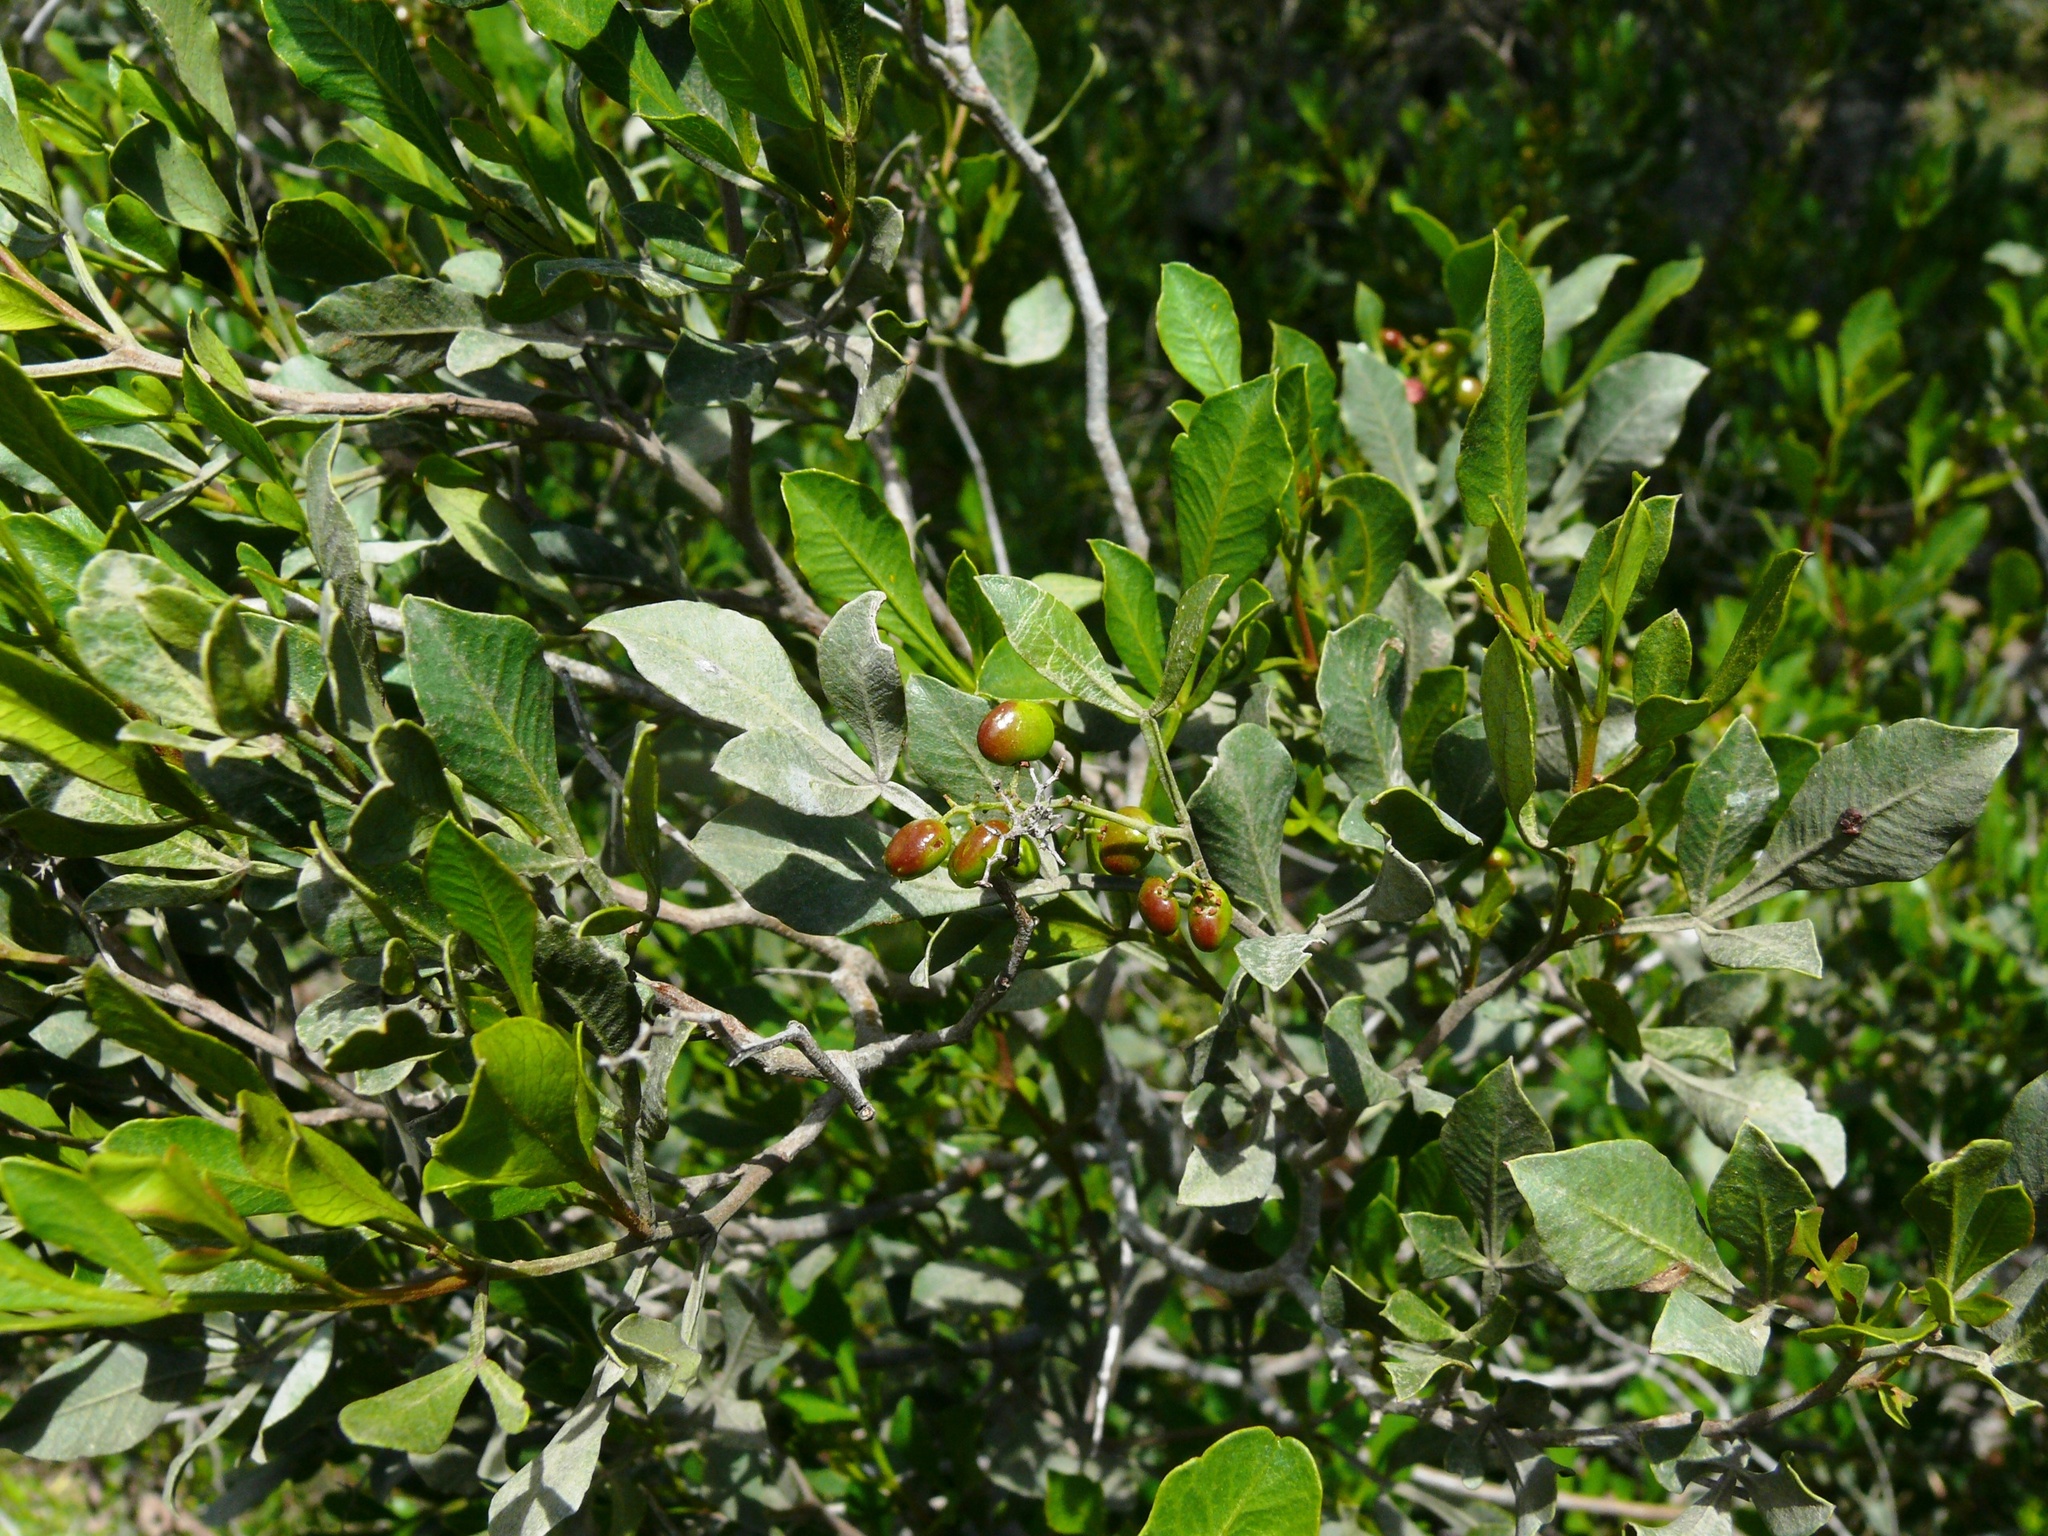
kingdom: Plantae
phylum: Tracheophyta
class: Magnoliopsida
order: Sapindales
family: Anacardiaceae
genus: Searsia
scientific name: Searsia pallens
